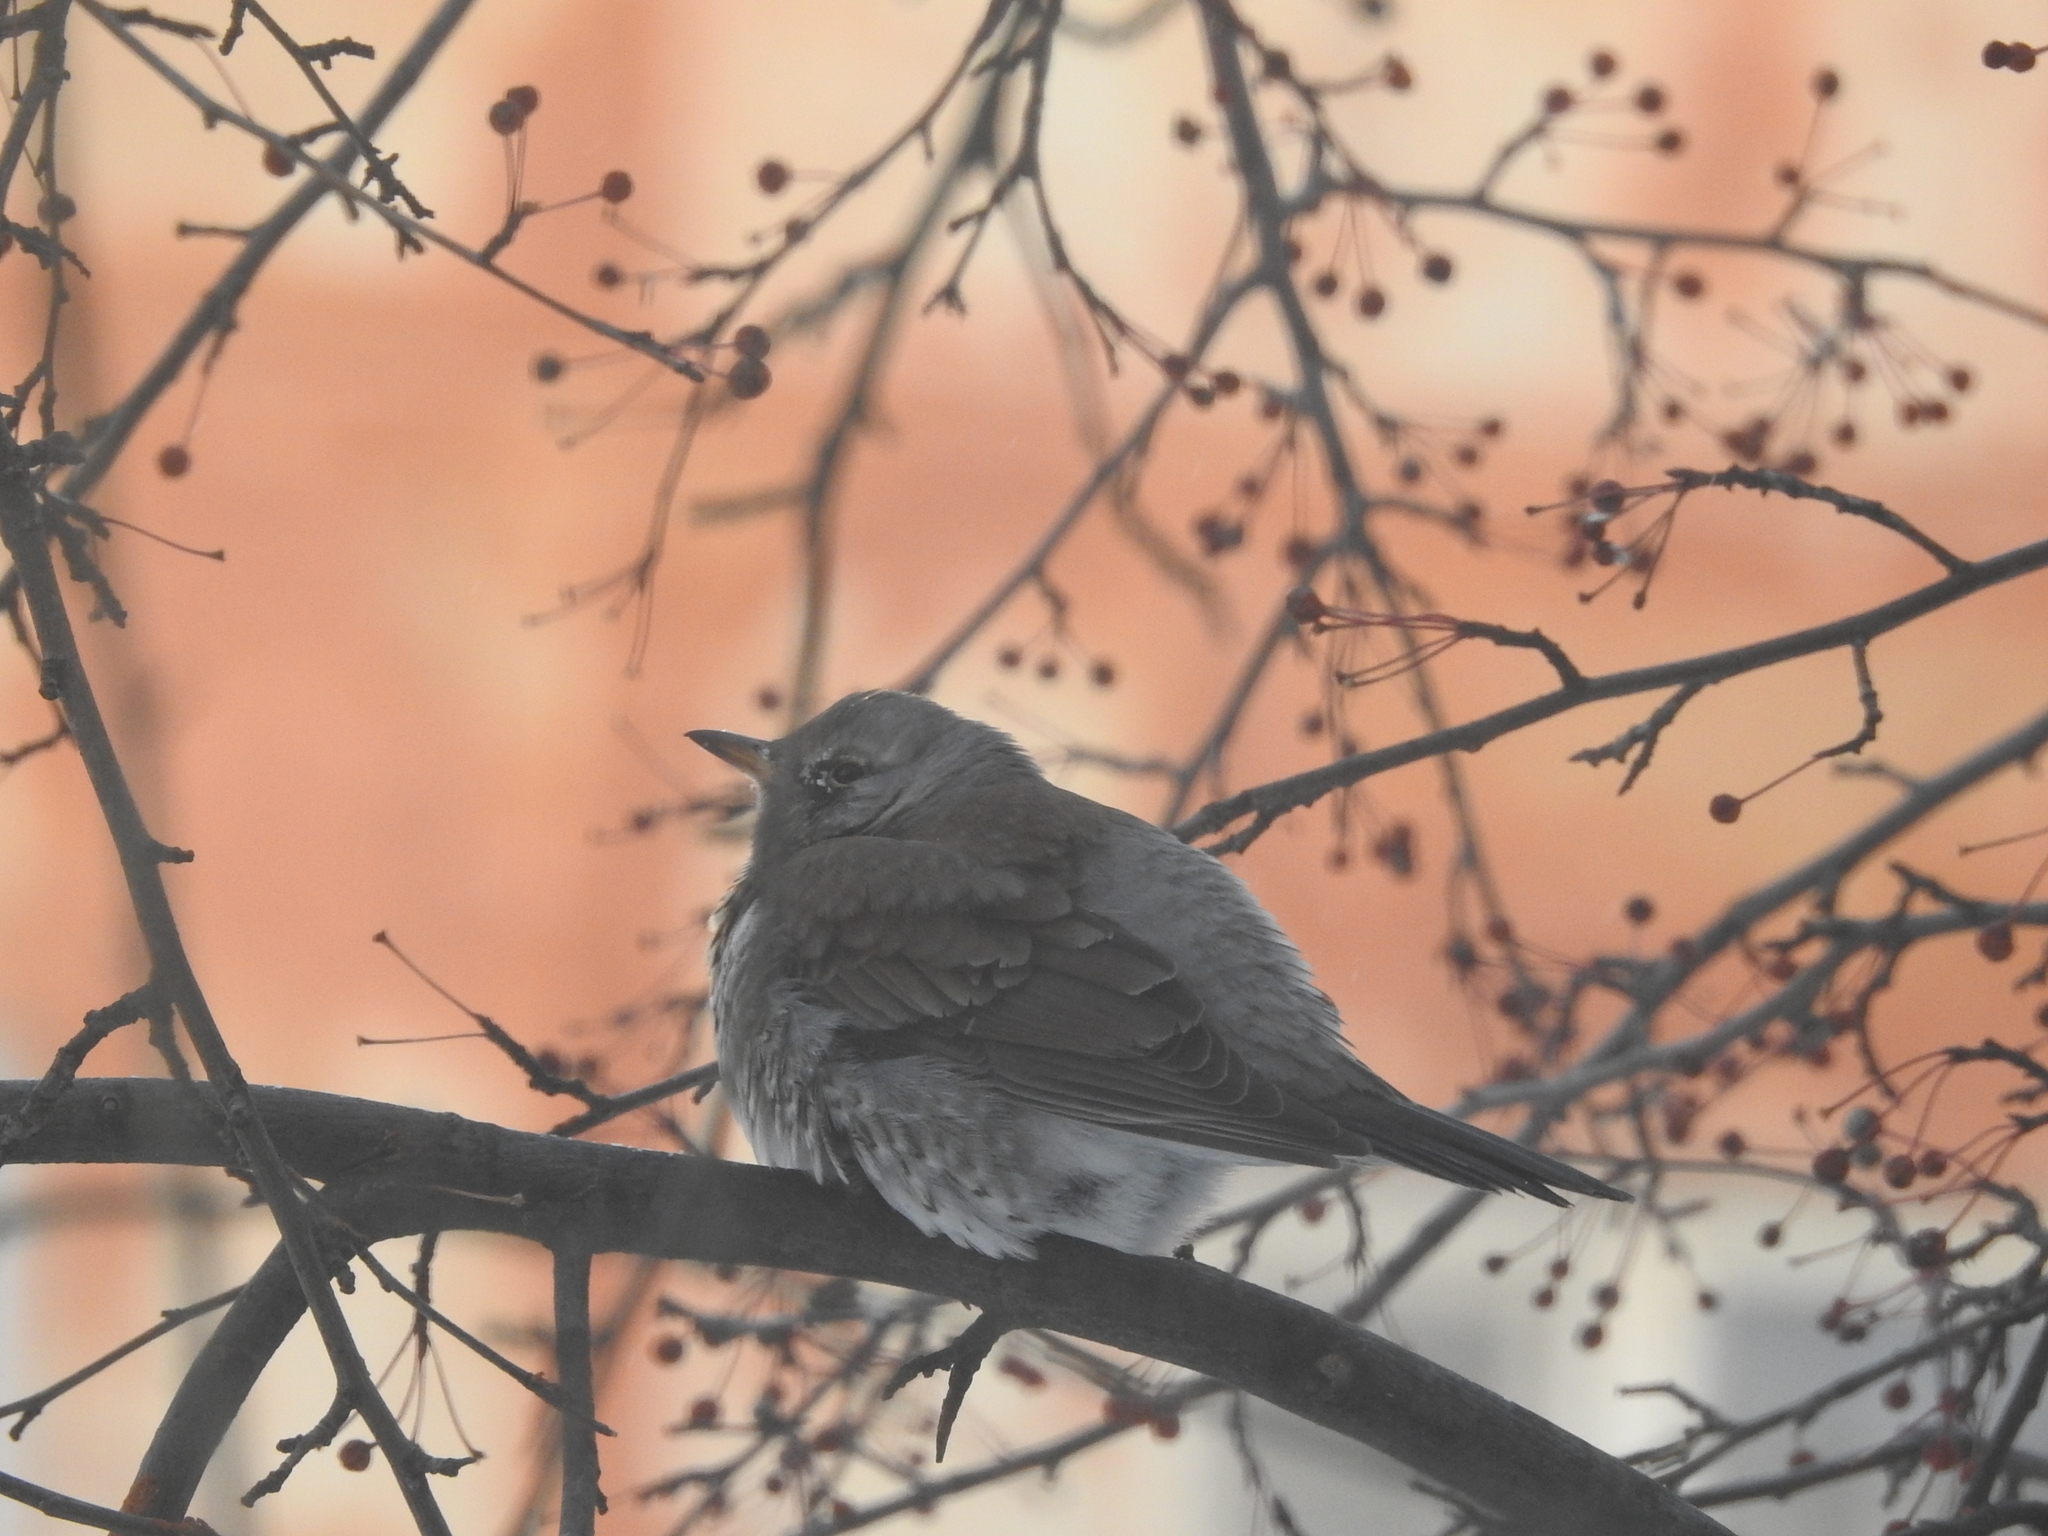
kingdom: Animalia
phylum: Chordata
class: Aves
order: Passeriformes
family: Turdidae
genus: Turdus
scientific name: Turdus pilaris
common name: Fieldfare
